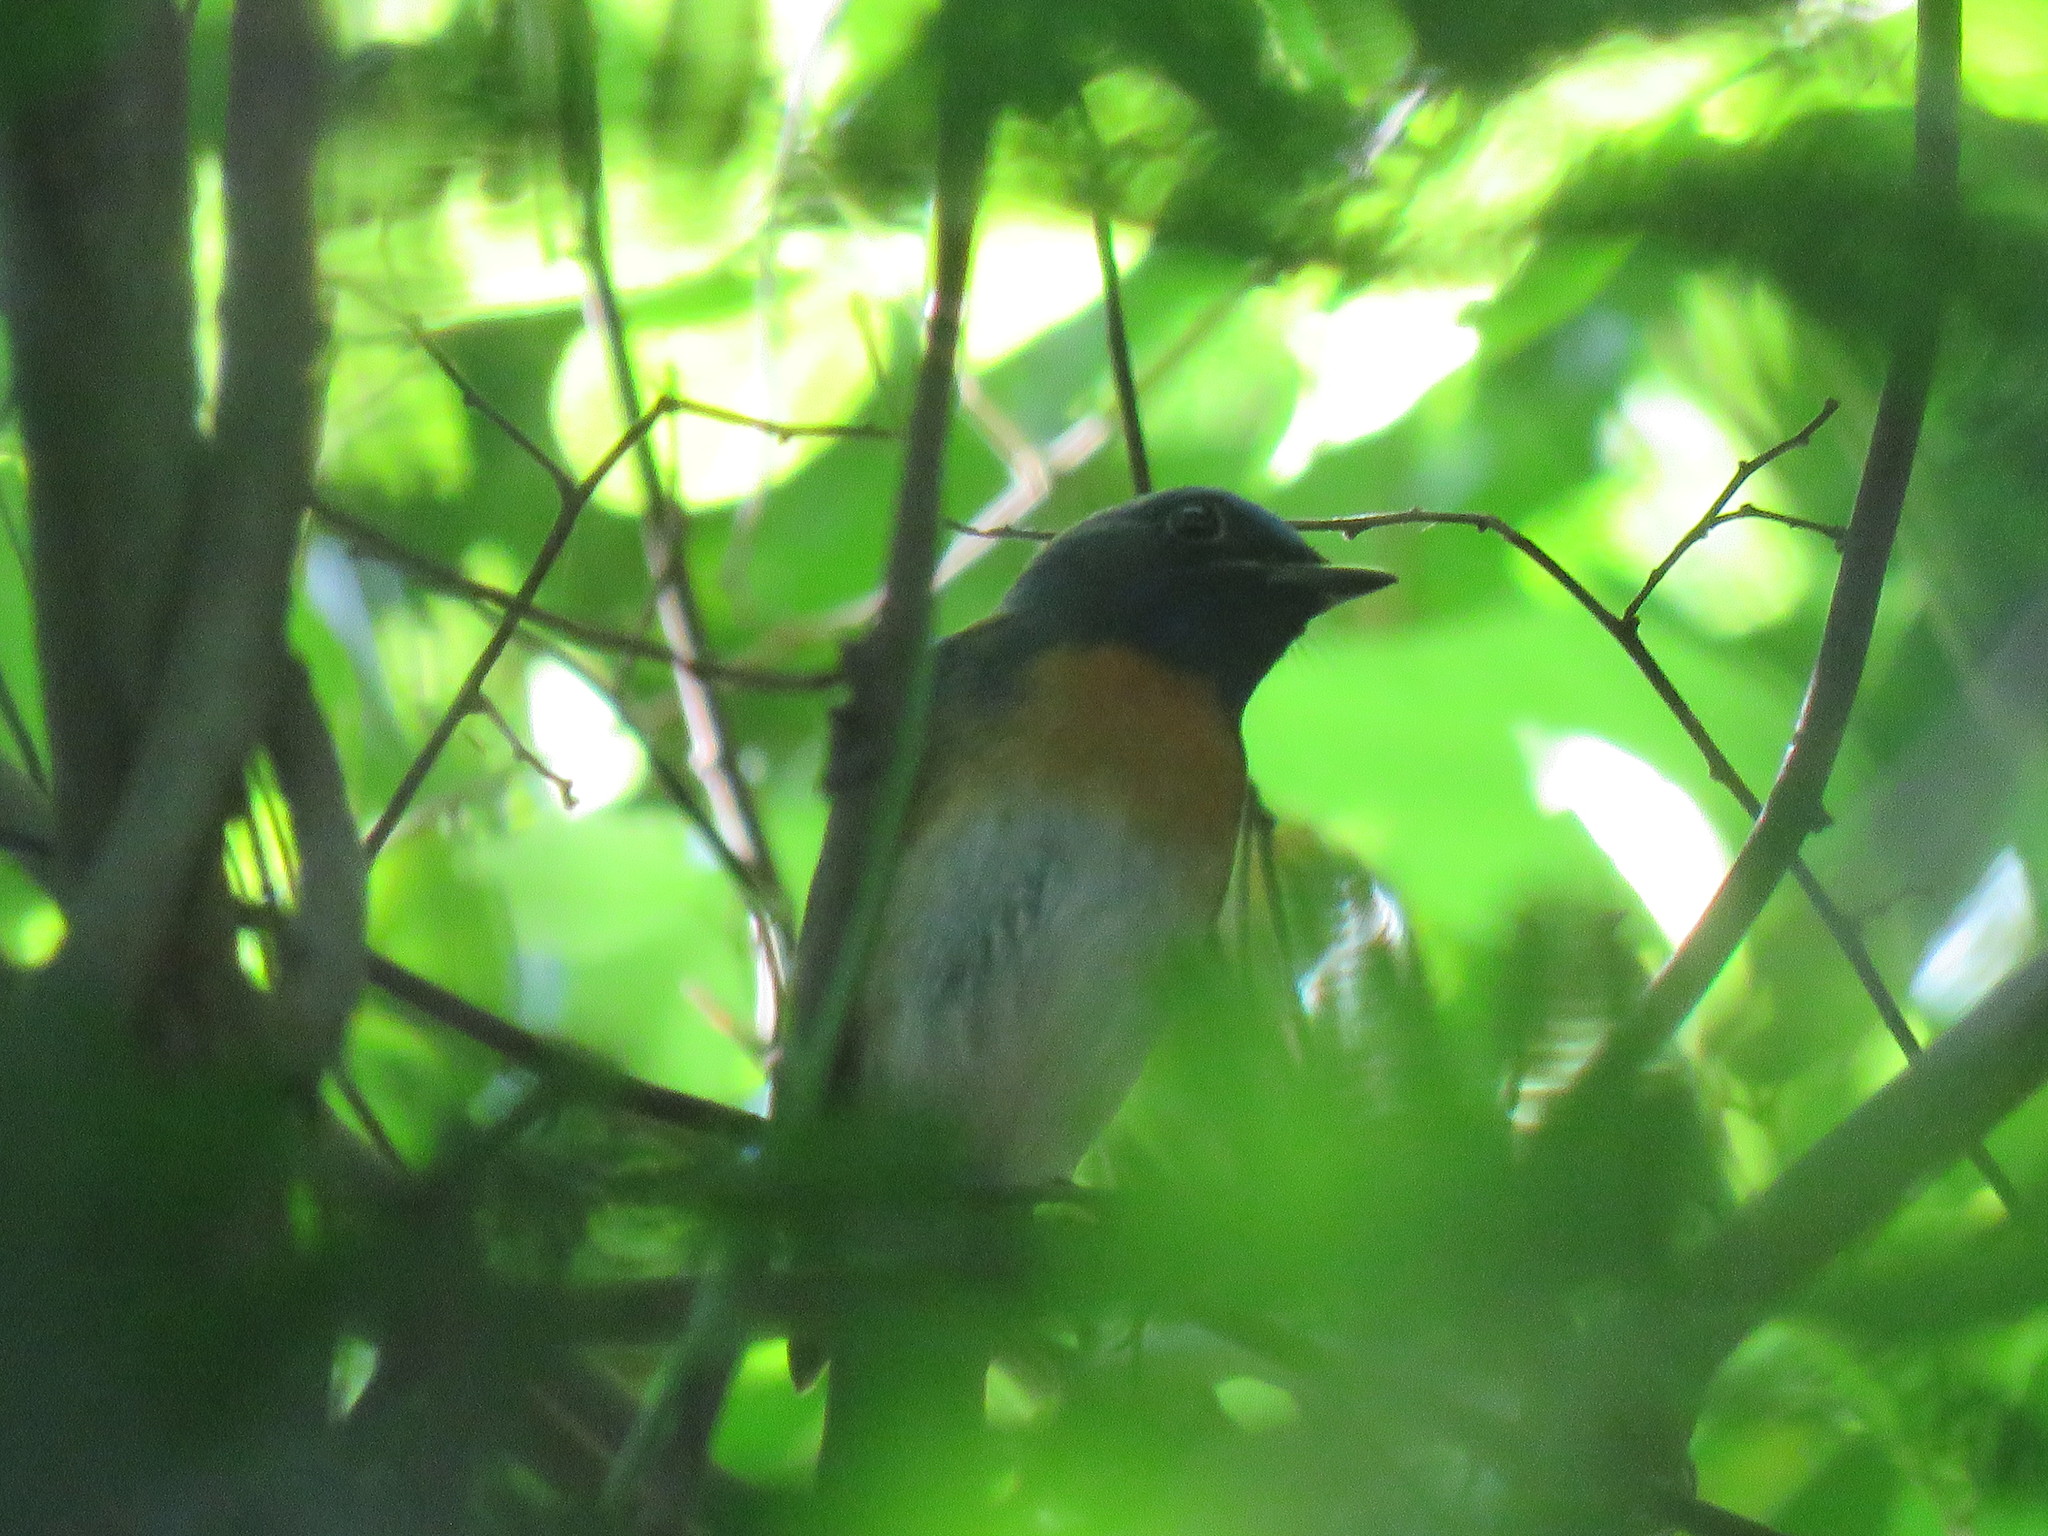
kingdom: Animalia
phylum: Chordata
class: Aves
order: Passeriformes
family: Muscicapidae
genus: Cyornis
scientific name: Cyornis rubeculoides
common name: Blue-throated blue flycatcher
